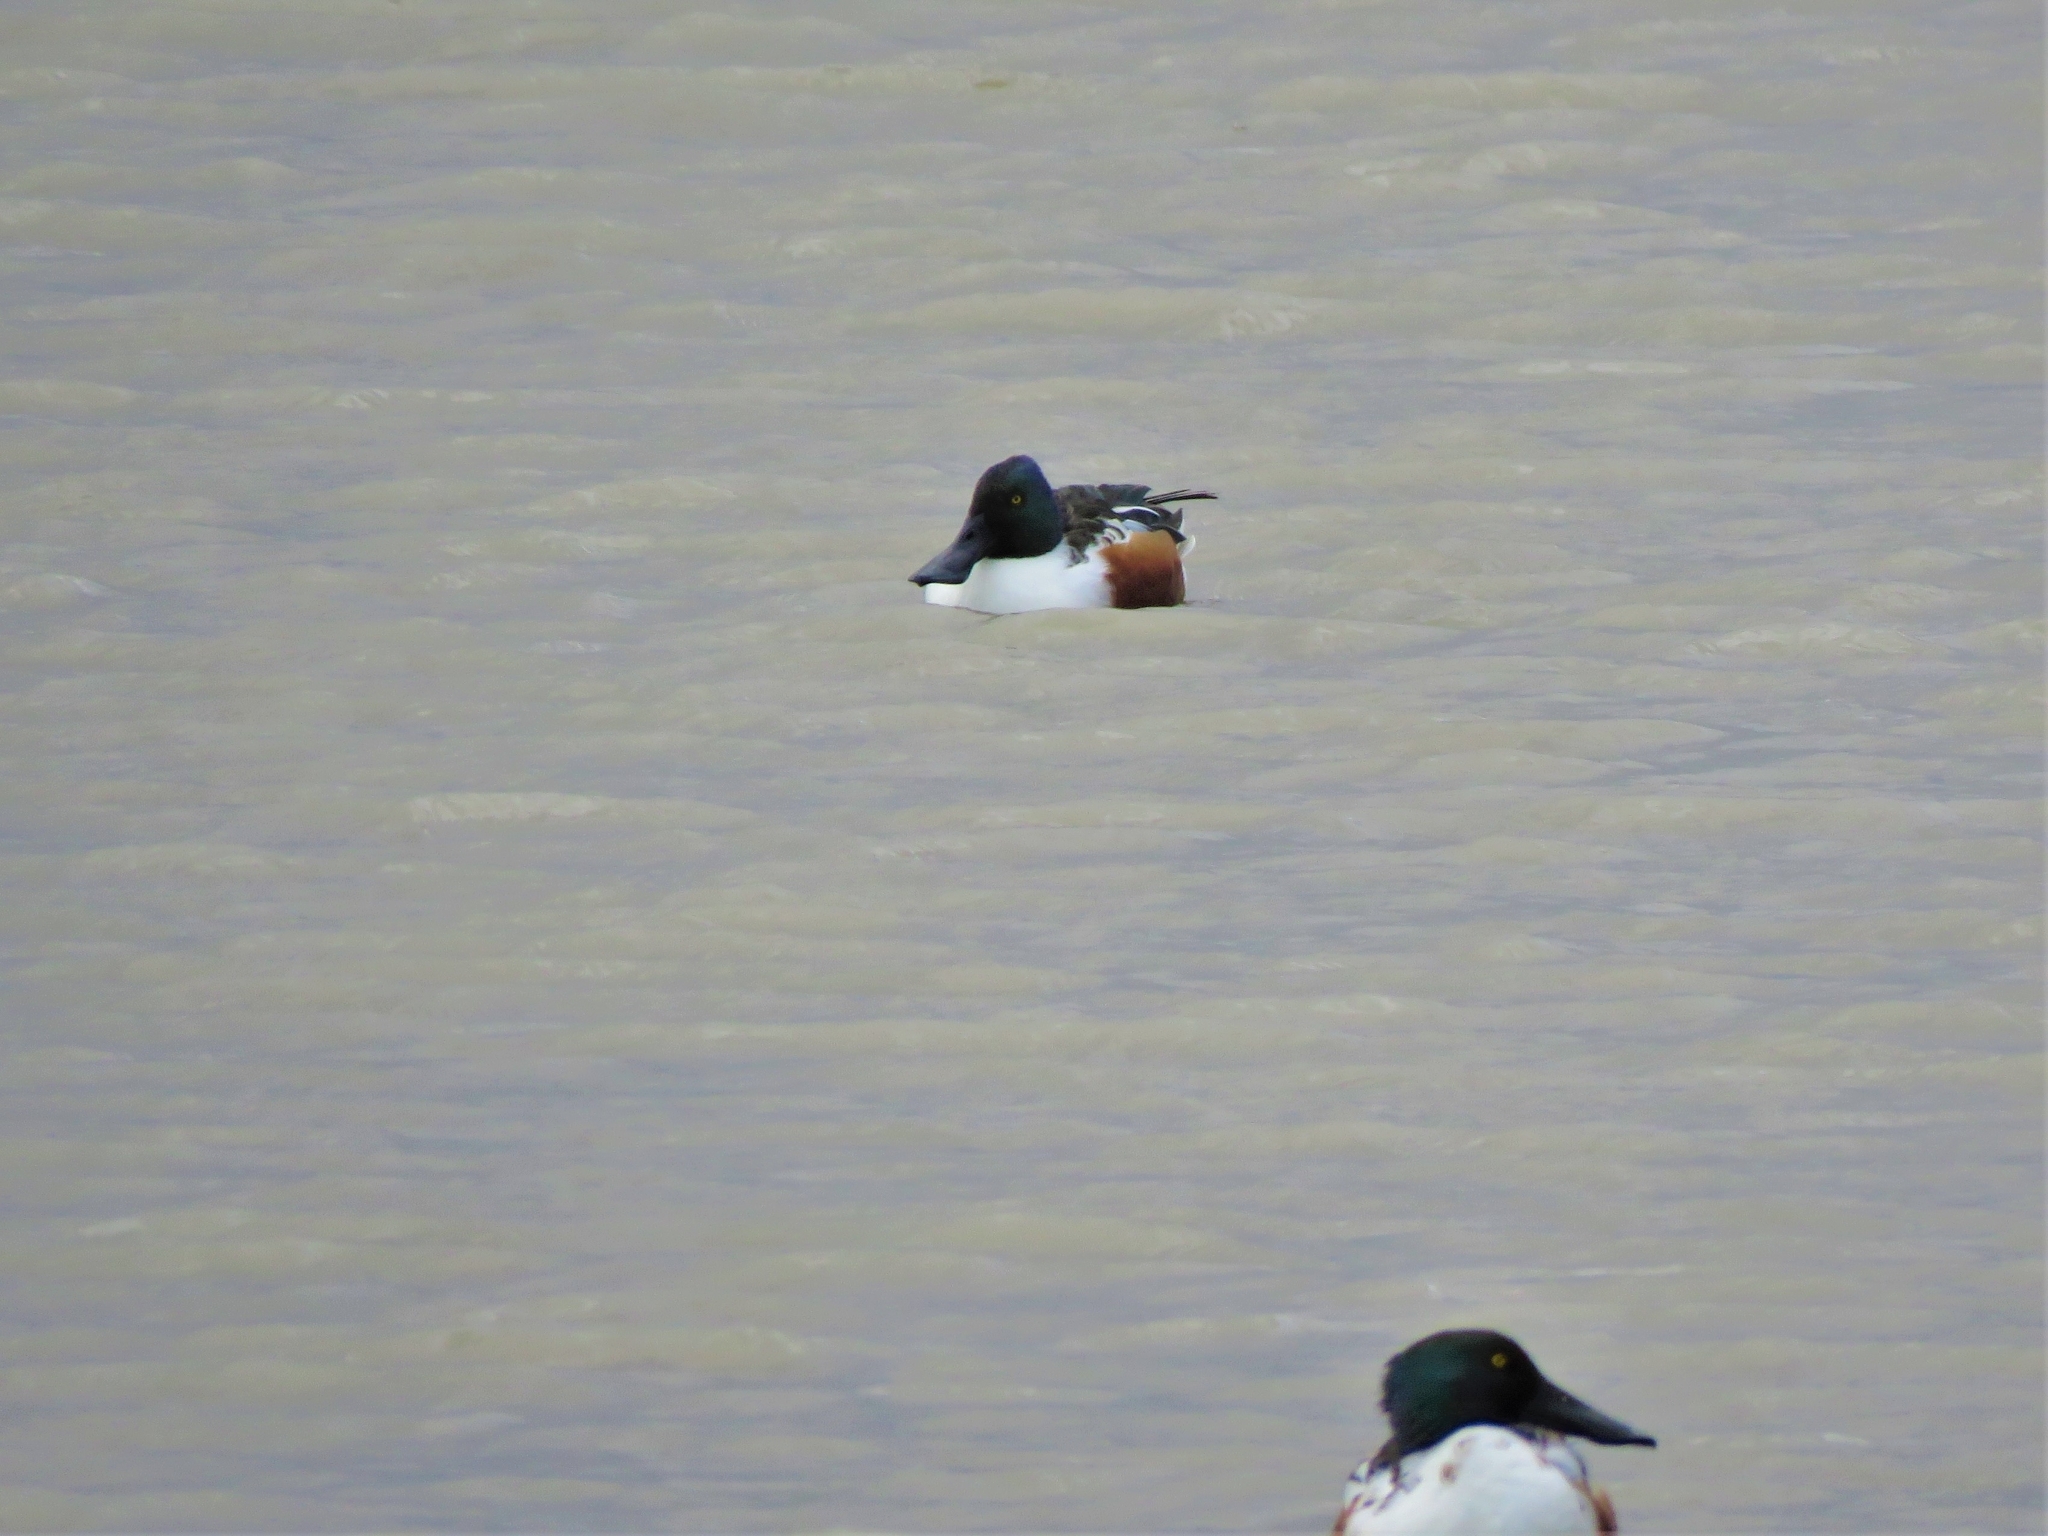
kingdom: Animalia
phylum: Chordata
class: Aves
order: Anseriformes
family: Anatidae
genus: Spatula
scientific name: Spatula clypeata
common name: Northern shoveler
